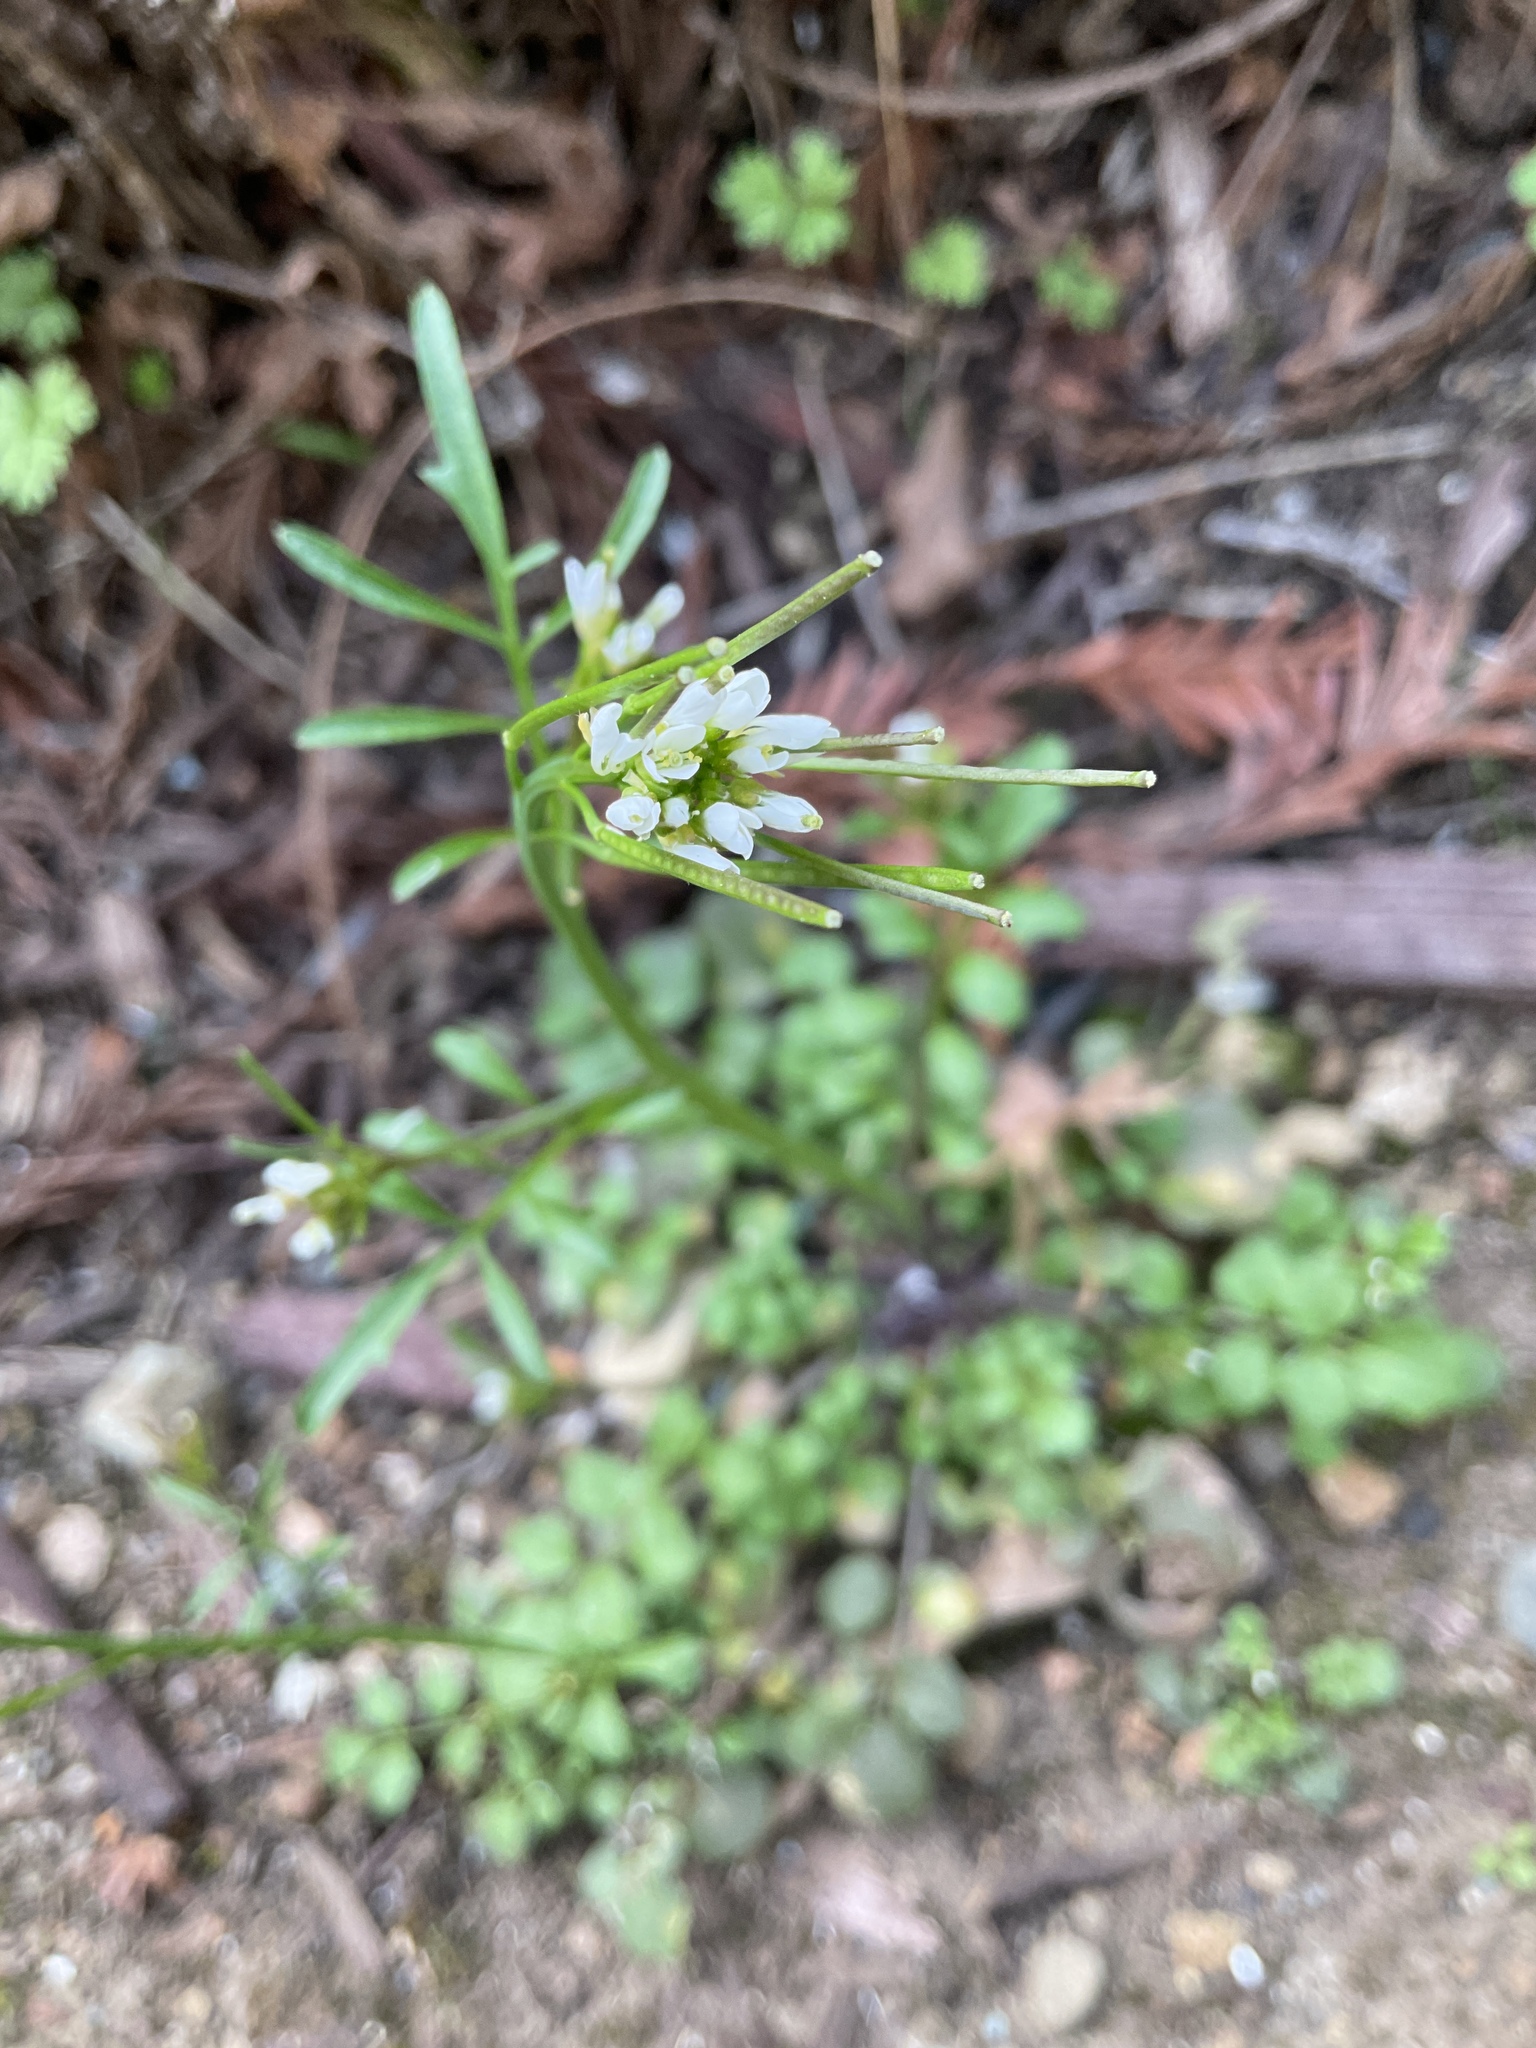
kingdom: Plantae
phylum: Tracheophyta
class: Magnoliopsida
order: Brassicales
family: Brassicaceae
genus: Cardamine
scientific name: Cardamine hirsuta
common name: Hairy bittercress
